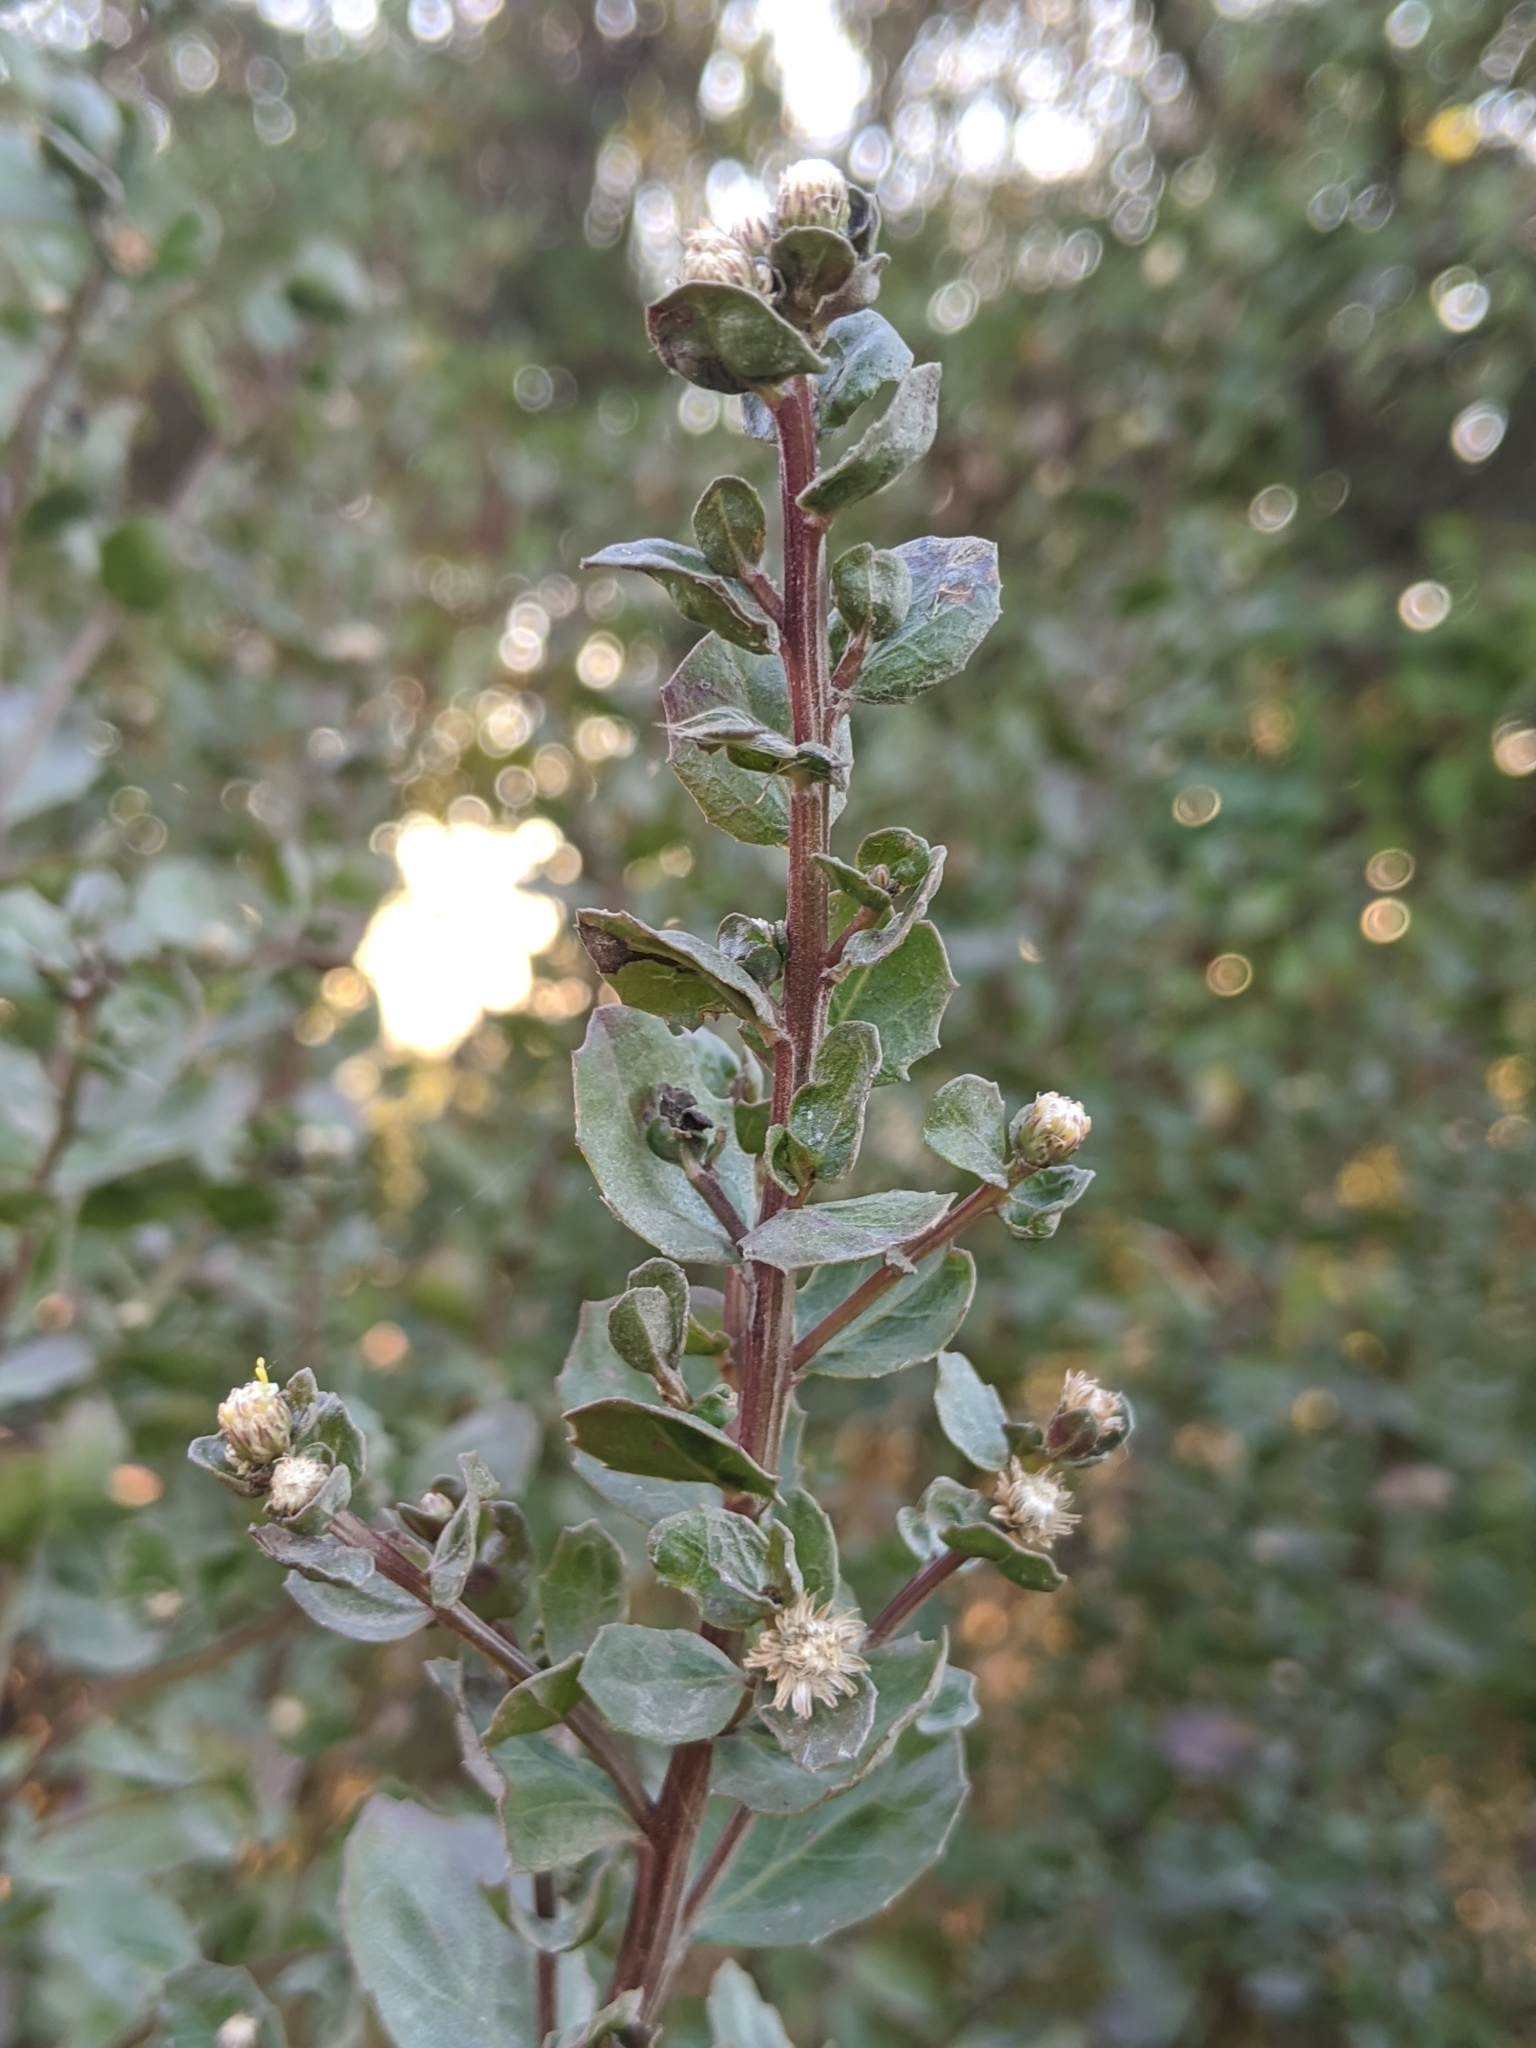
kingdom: Plantae
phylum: Tracheophyta
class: Magnoliopsida
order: Asterales
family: Asteraceae
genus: Baccharis
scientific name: Baccharis pilularis
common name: Coyotebrush
